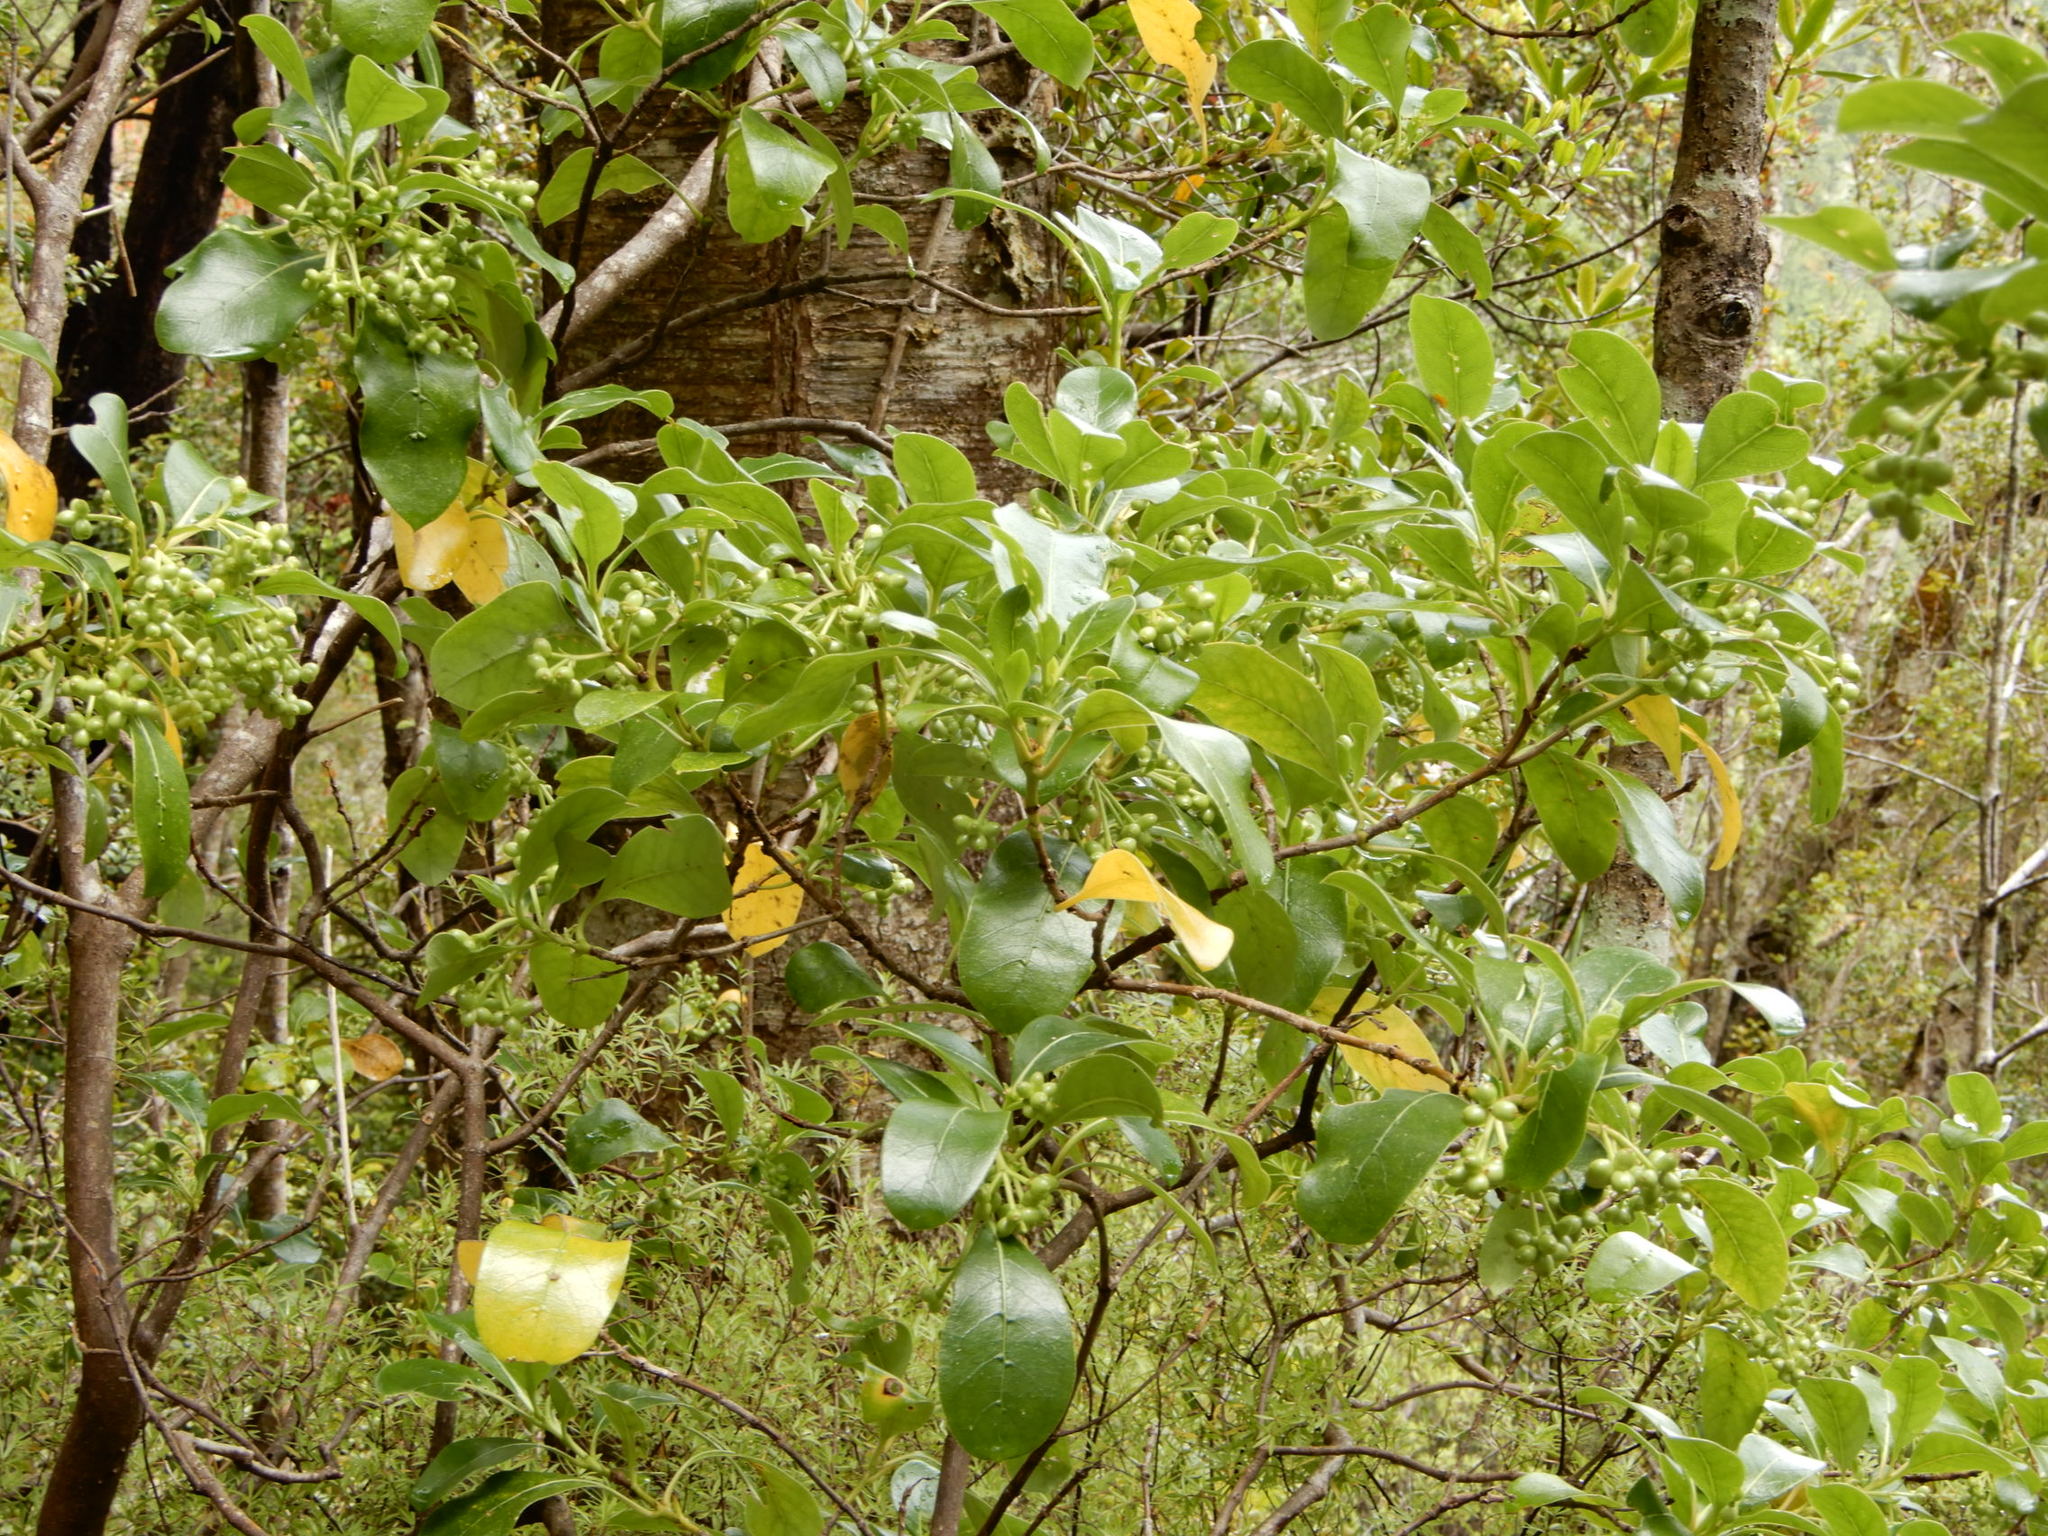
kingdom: Plantae
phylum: Tracheophyta
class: Magnoliopsida
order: Gentianales
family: Rubiaceae
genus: Coprosma
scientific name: Coprosma lucida
